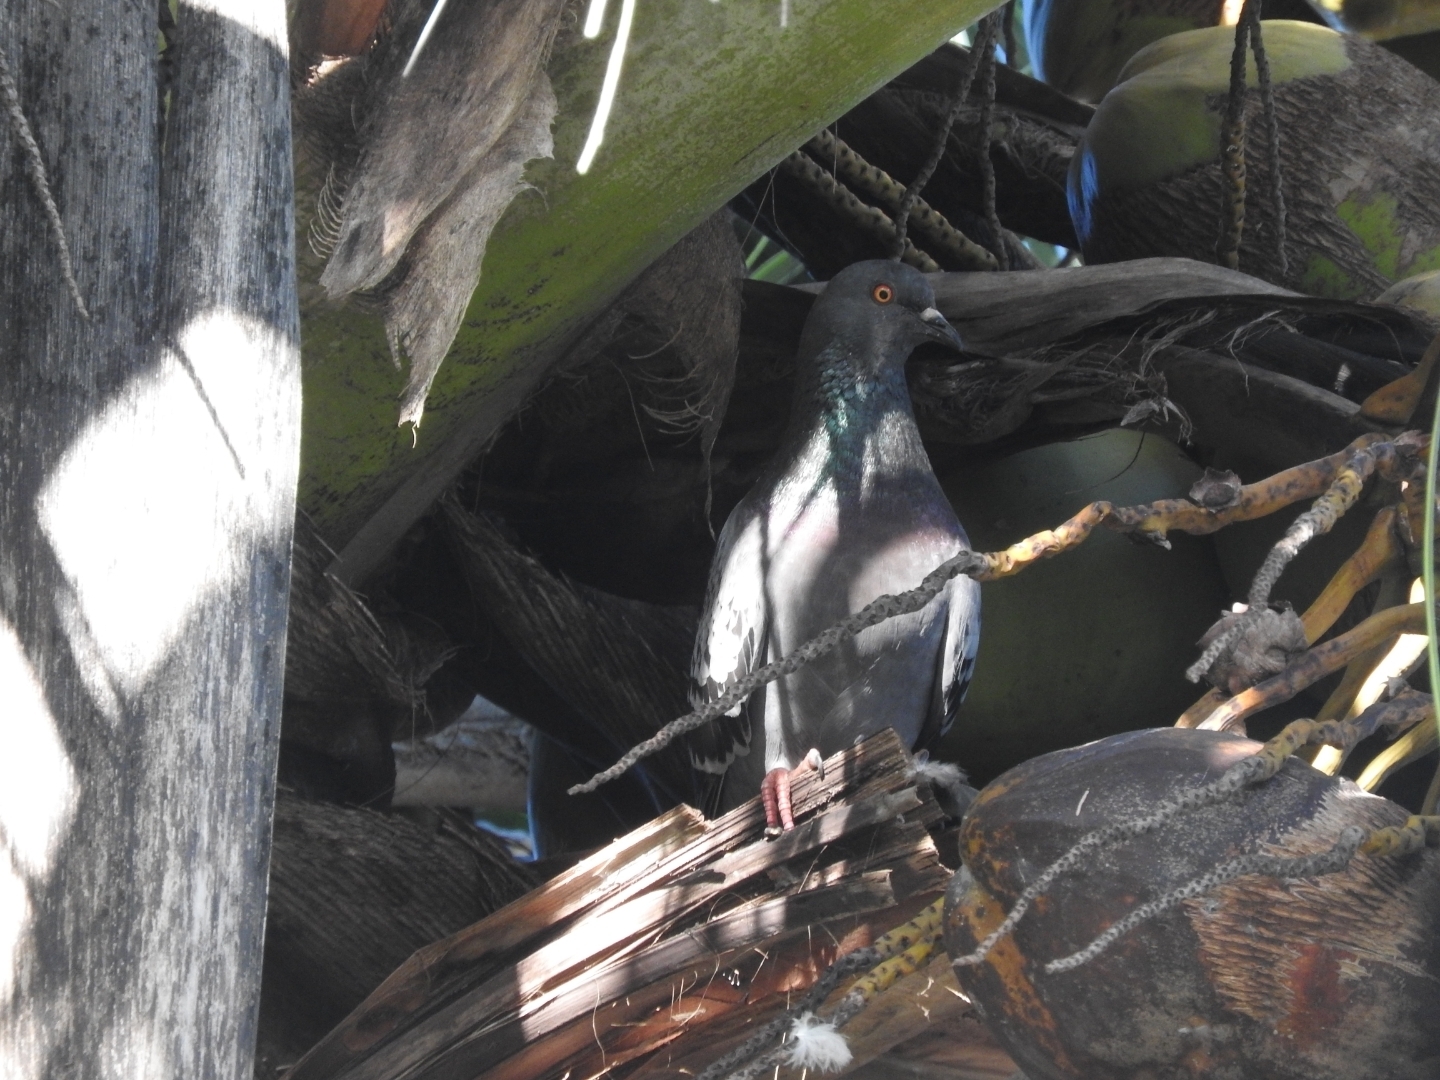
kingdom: Animalia
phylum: Chordata
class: Aves
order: Columbiformes
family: Columbidae
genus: Columba
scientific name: Columba livia
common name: Rock pigeon
